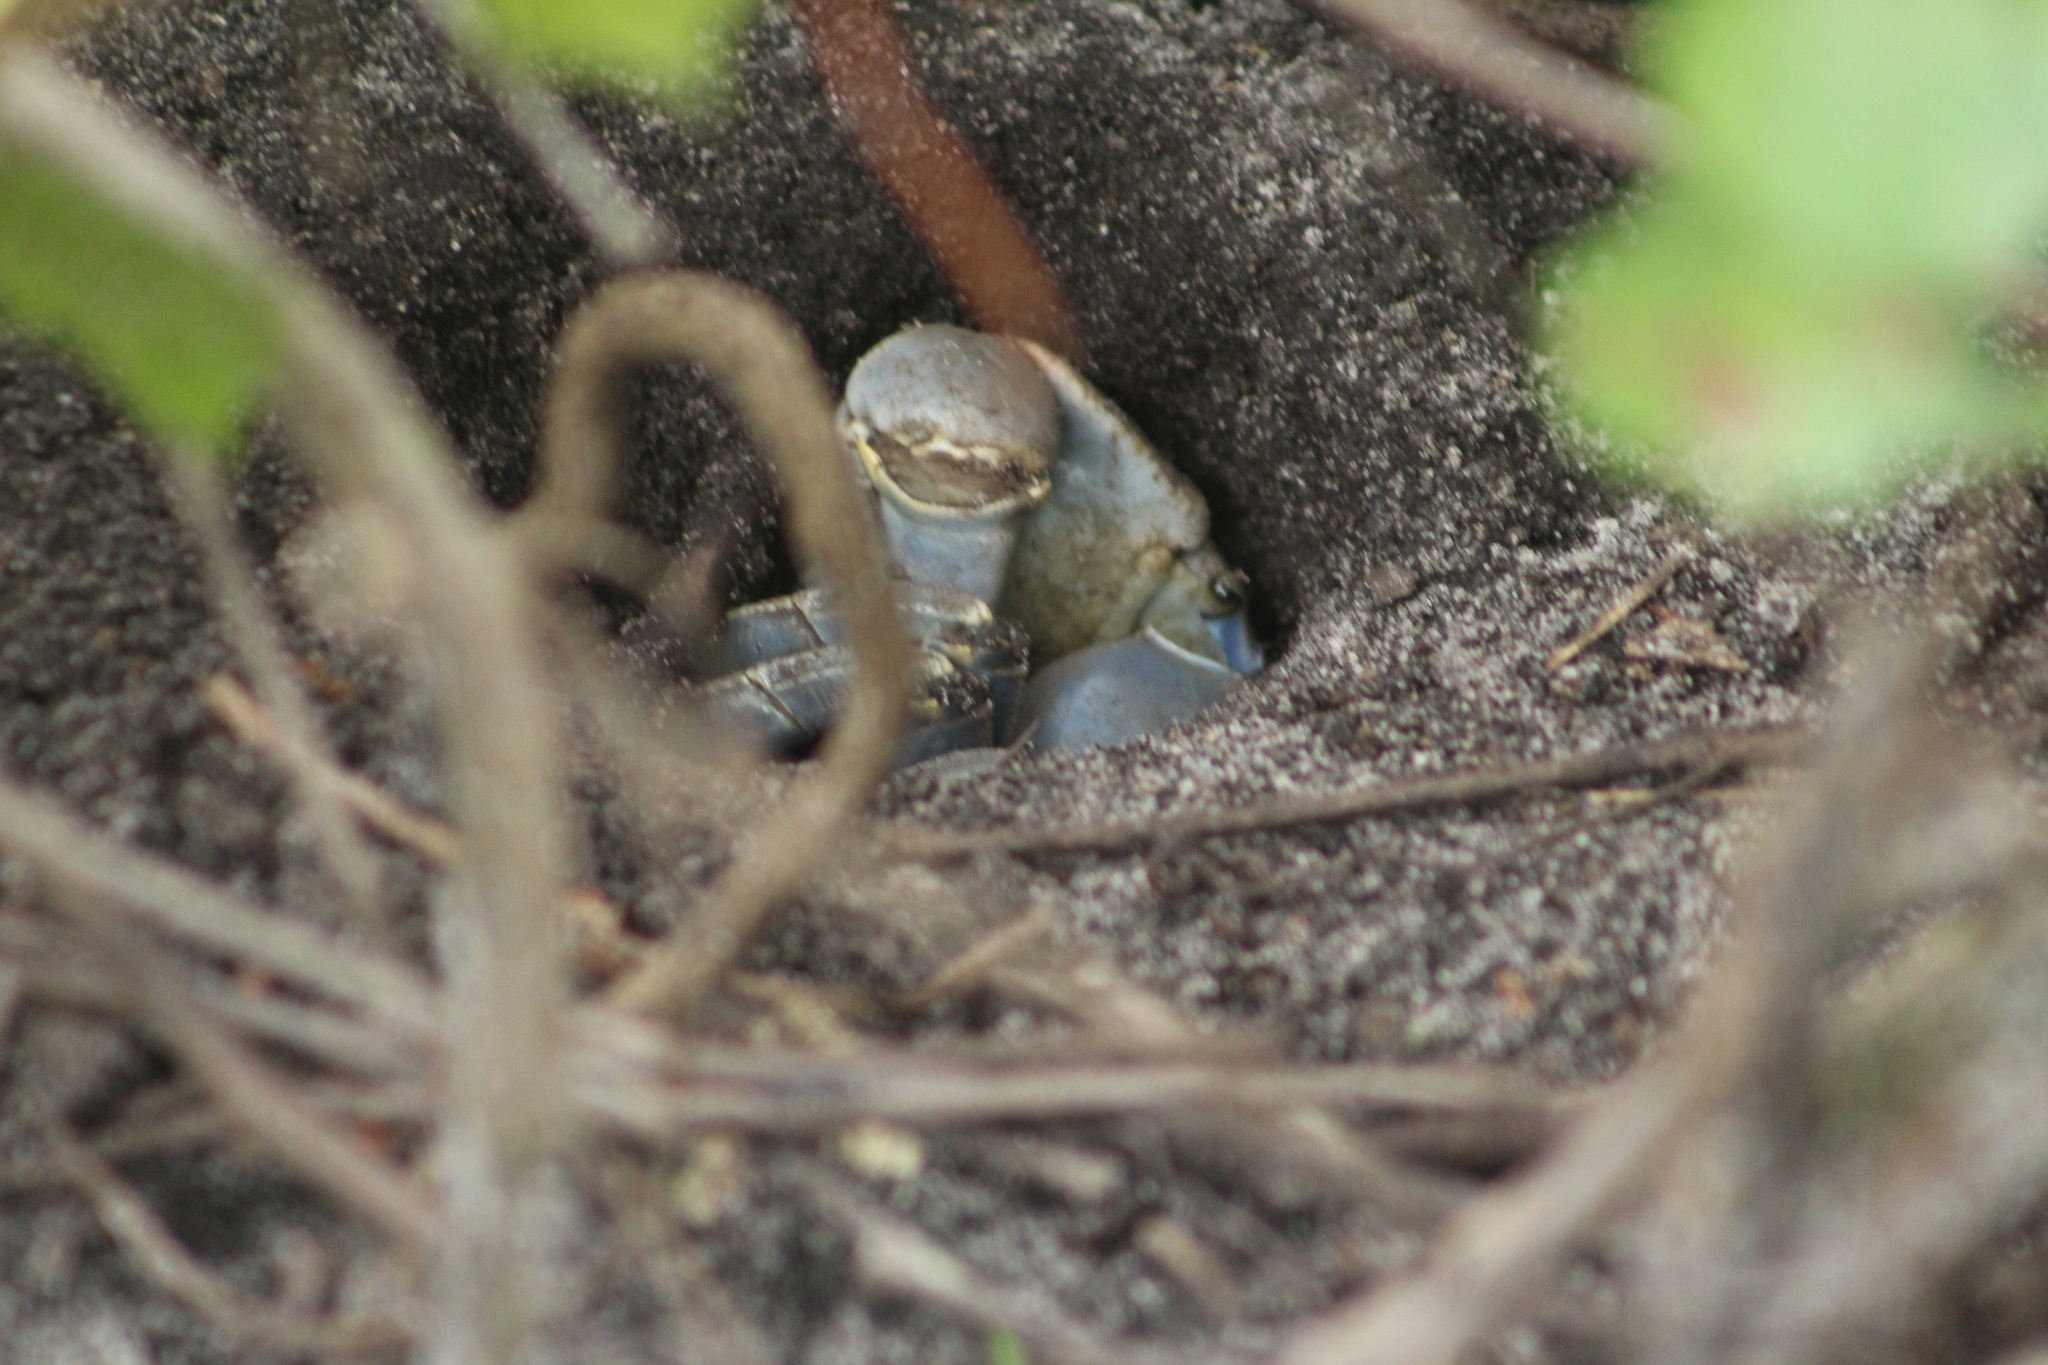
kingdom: Animalia
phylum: Arthropoda
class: Malacostraca
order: Decapoda
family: Gecarcinidae
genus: Cardisoma
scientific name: Cardisoma guanhumi
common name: Great land crab
